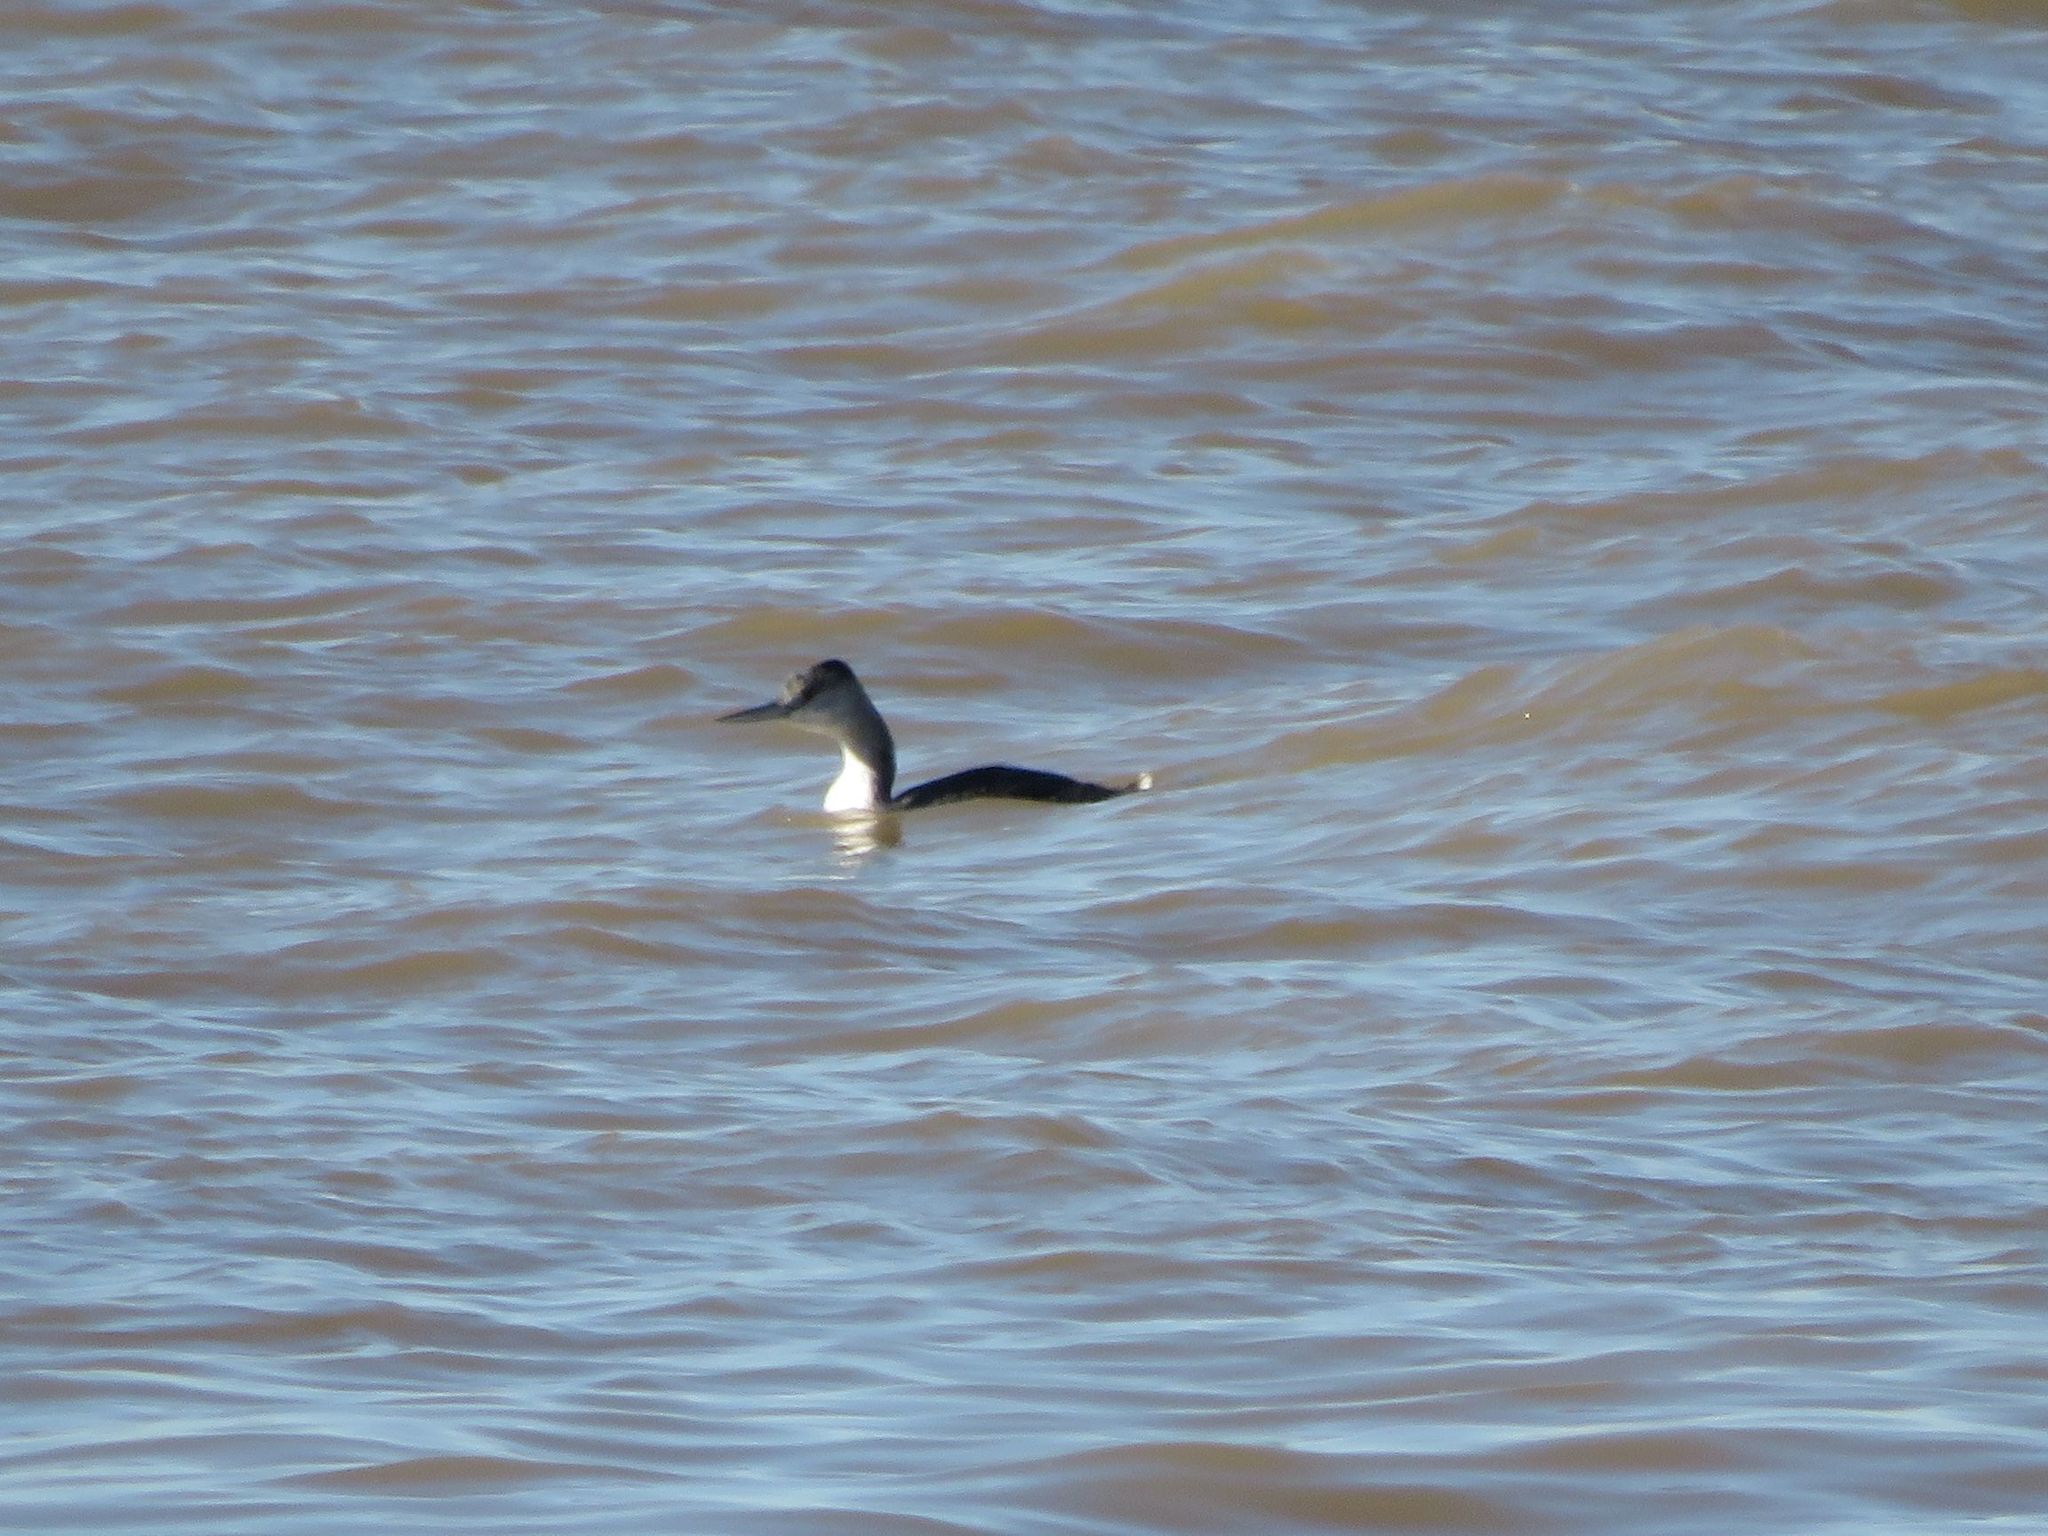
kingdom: Animalia
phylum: Chordata
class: Aves
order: Podicipediformes
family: Podicipedidae
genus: Podiceps
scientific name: Podiceps major
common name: Great grebe
